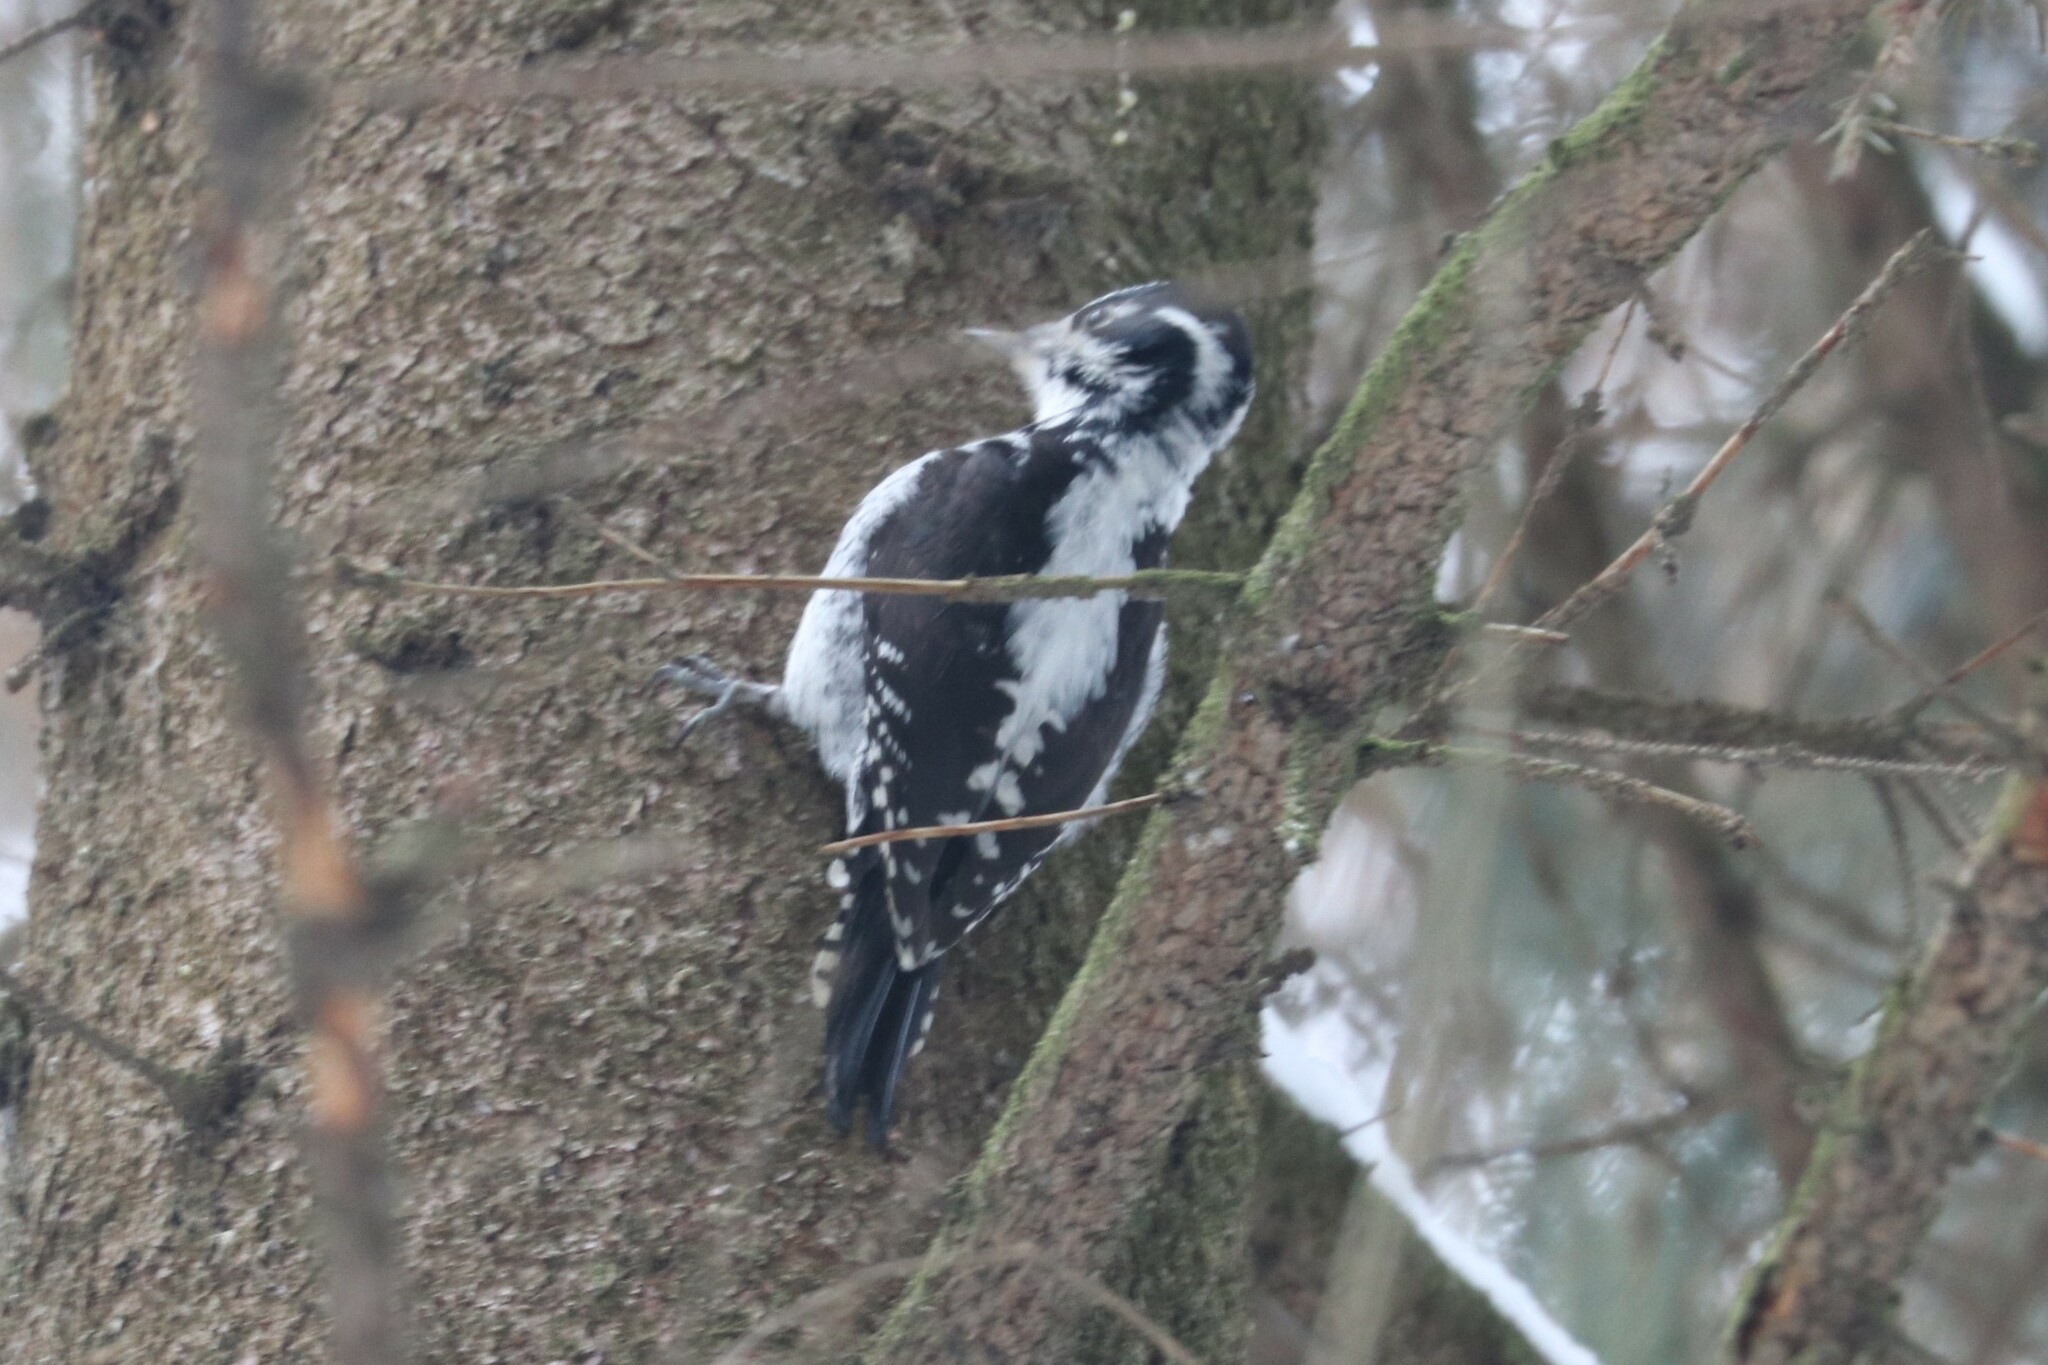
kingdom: Animalia
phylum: Chordata
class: Aves
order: Piciformes
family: Picidae
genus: Picoides
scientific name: Picoides tridactylus
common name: Eurasian three-toed woodpecker
